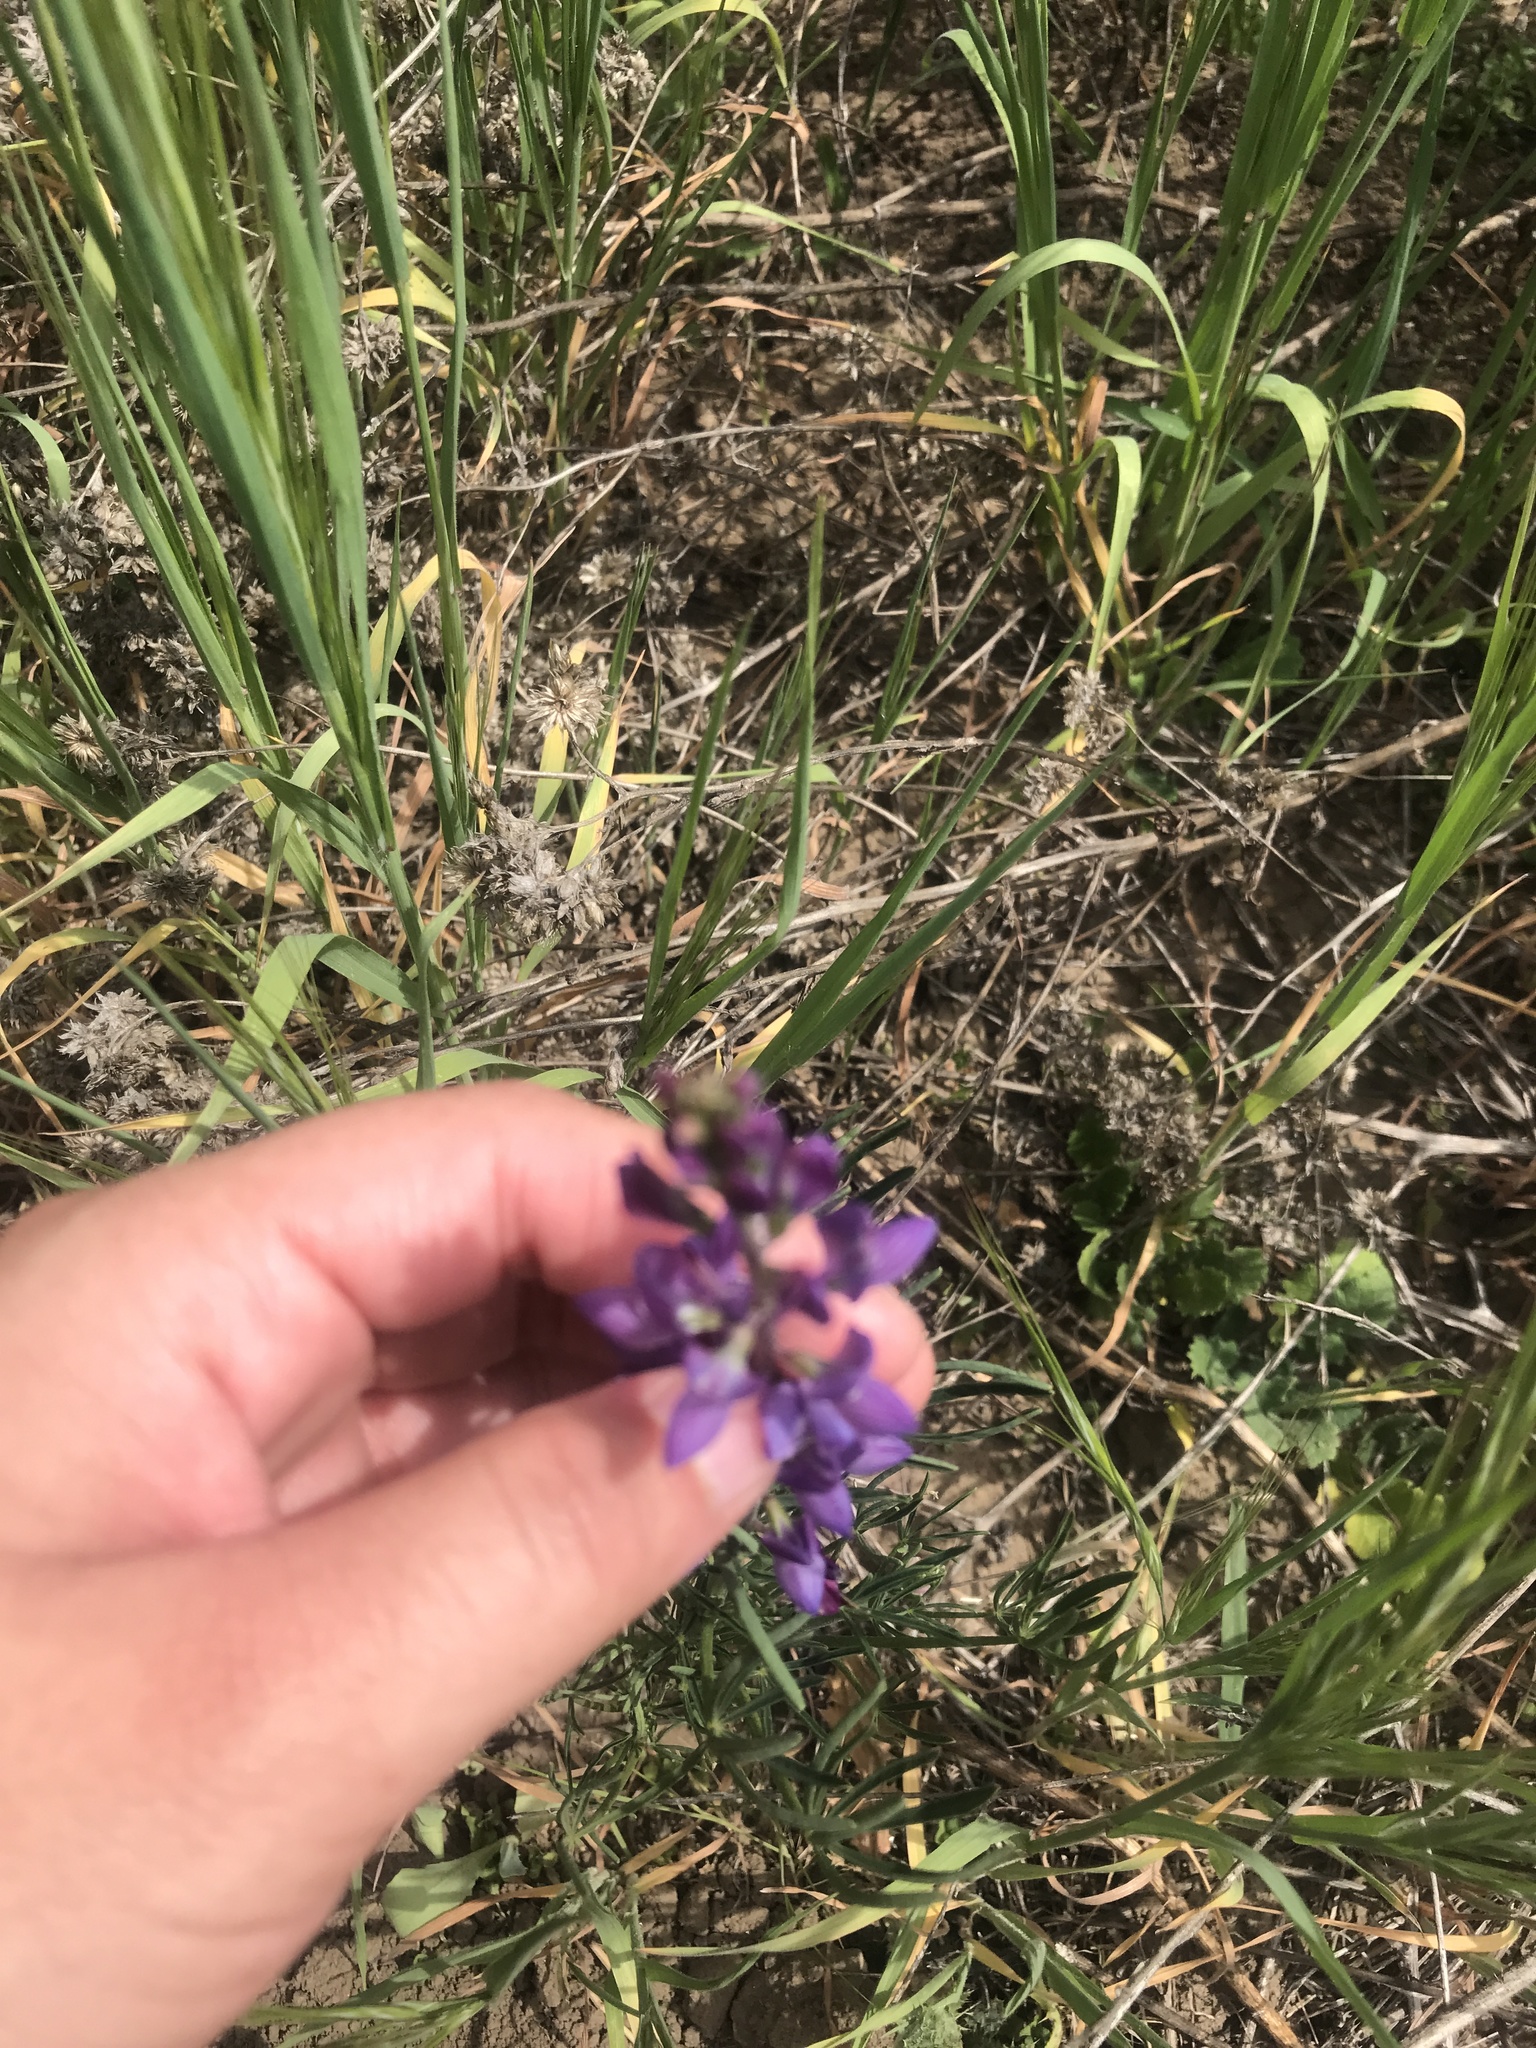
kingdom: Plantae
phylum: Tracheophyta
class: Magnoliopsida
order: Fabales
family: Fabaceae
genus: Lupinus
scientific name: Lupinus truncatus
